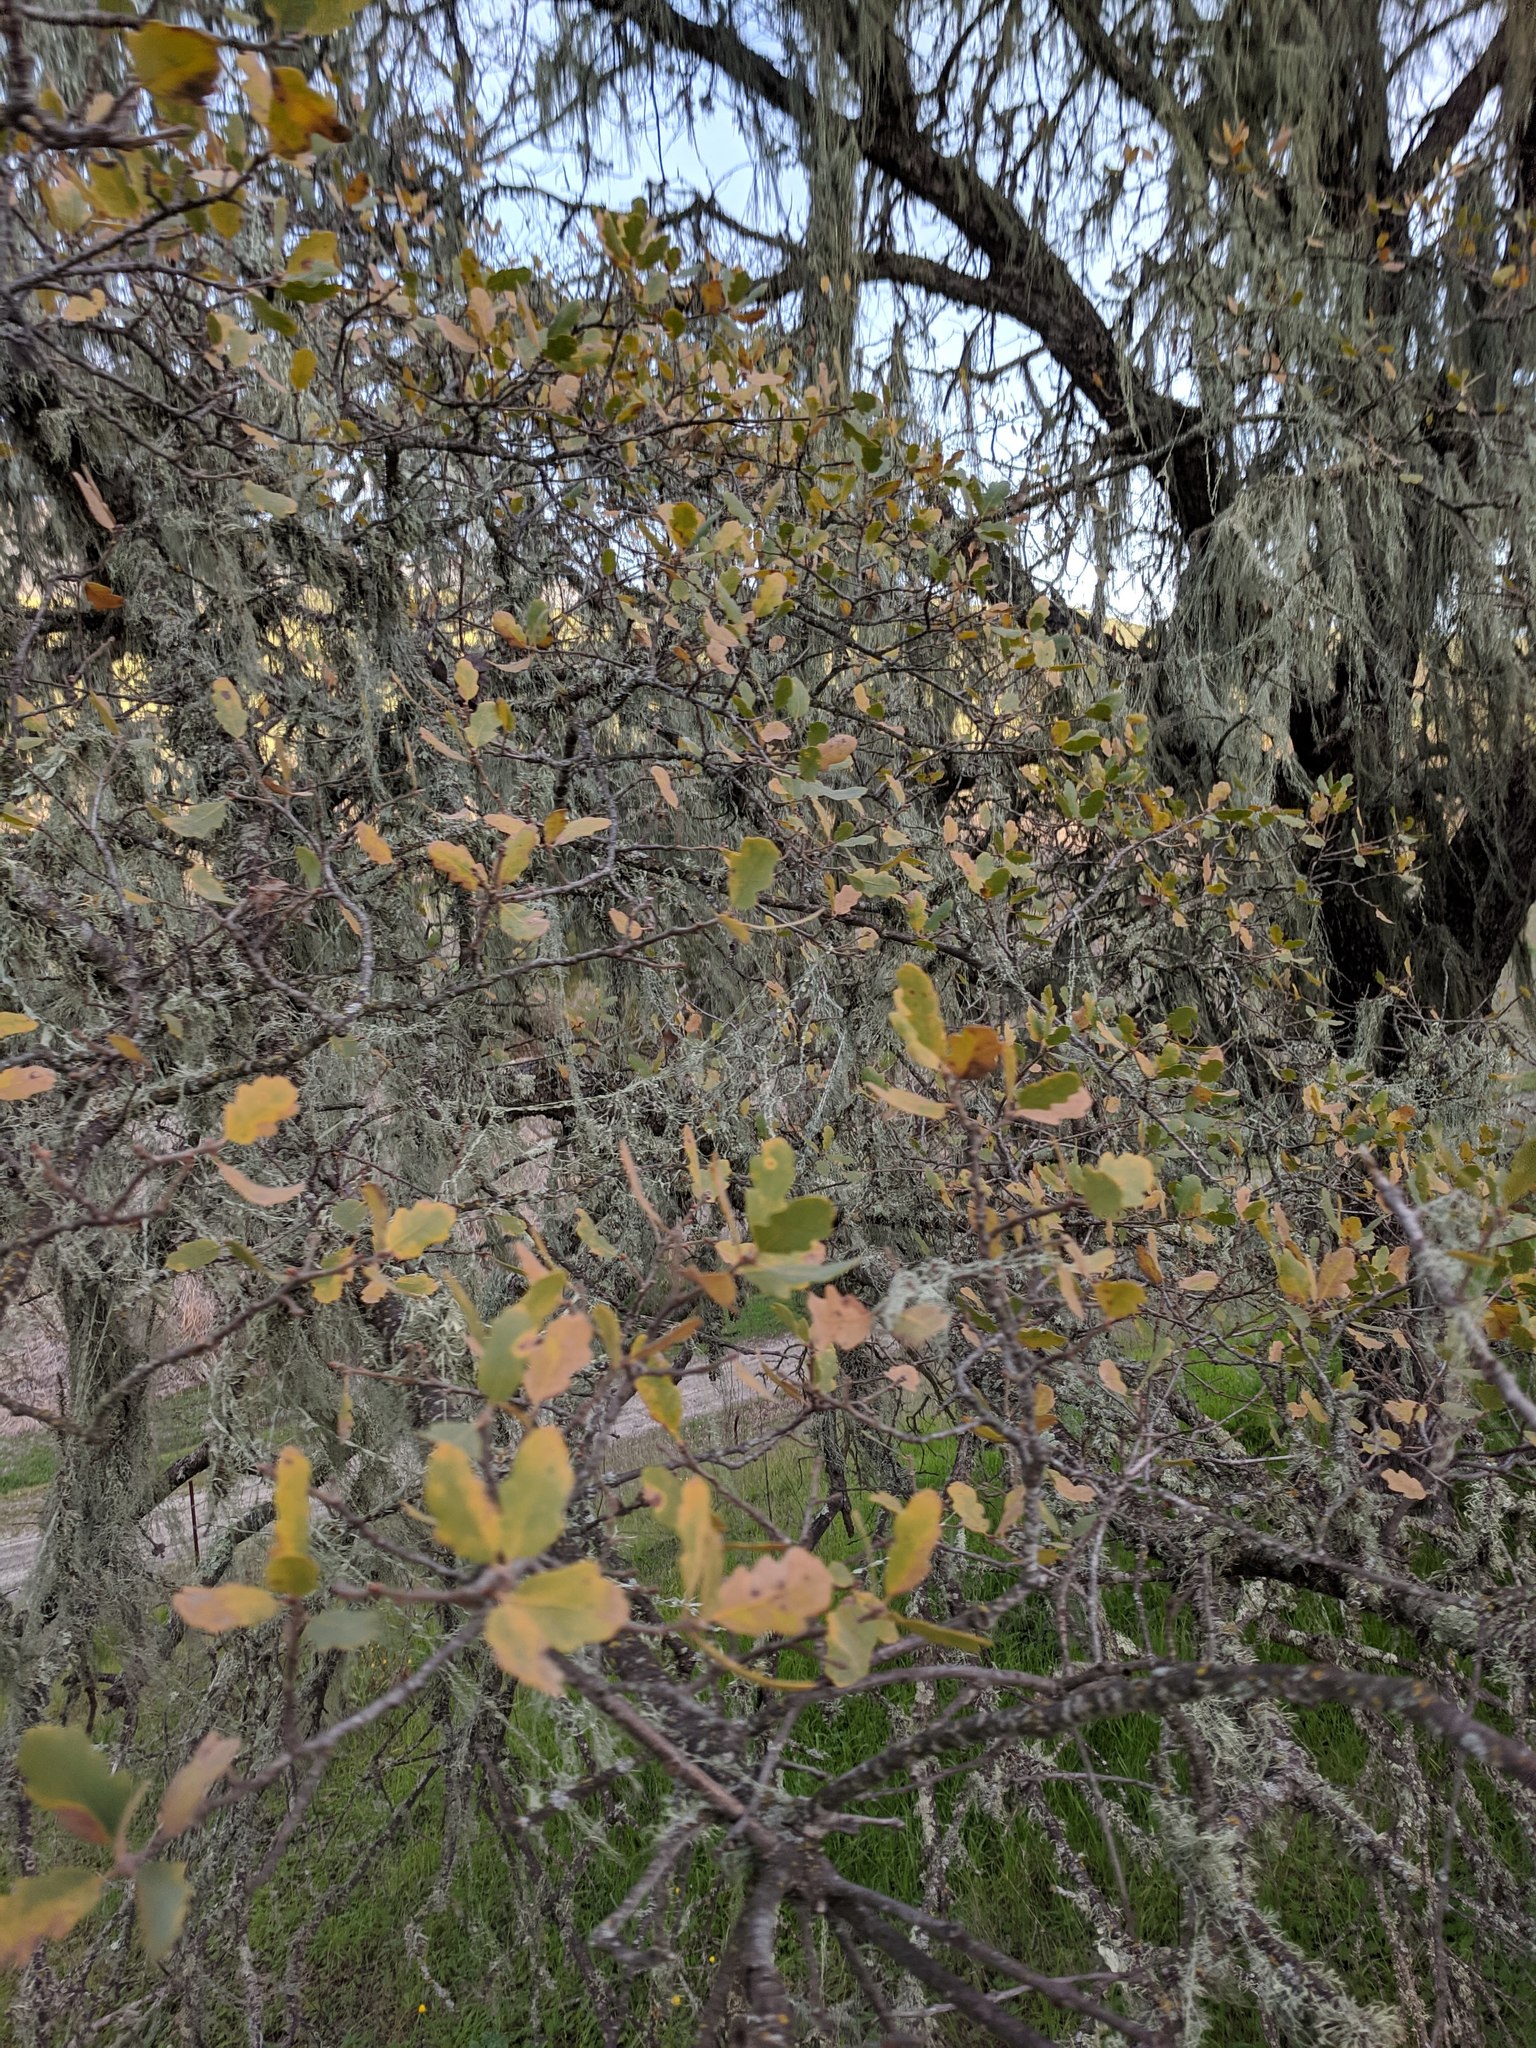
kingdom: Plantae
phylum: Tracheophyta
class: Magnoliopsida
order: Fagales
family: Fagaceae
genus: Quercus
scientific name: Quercus douglasii
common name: Blue oak
